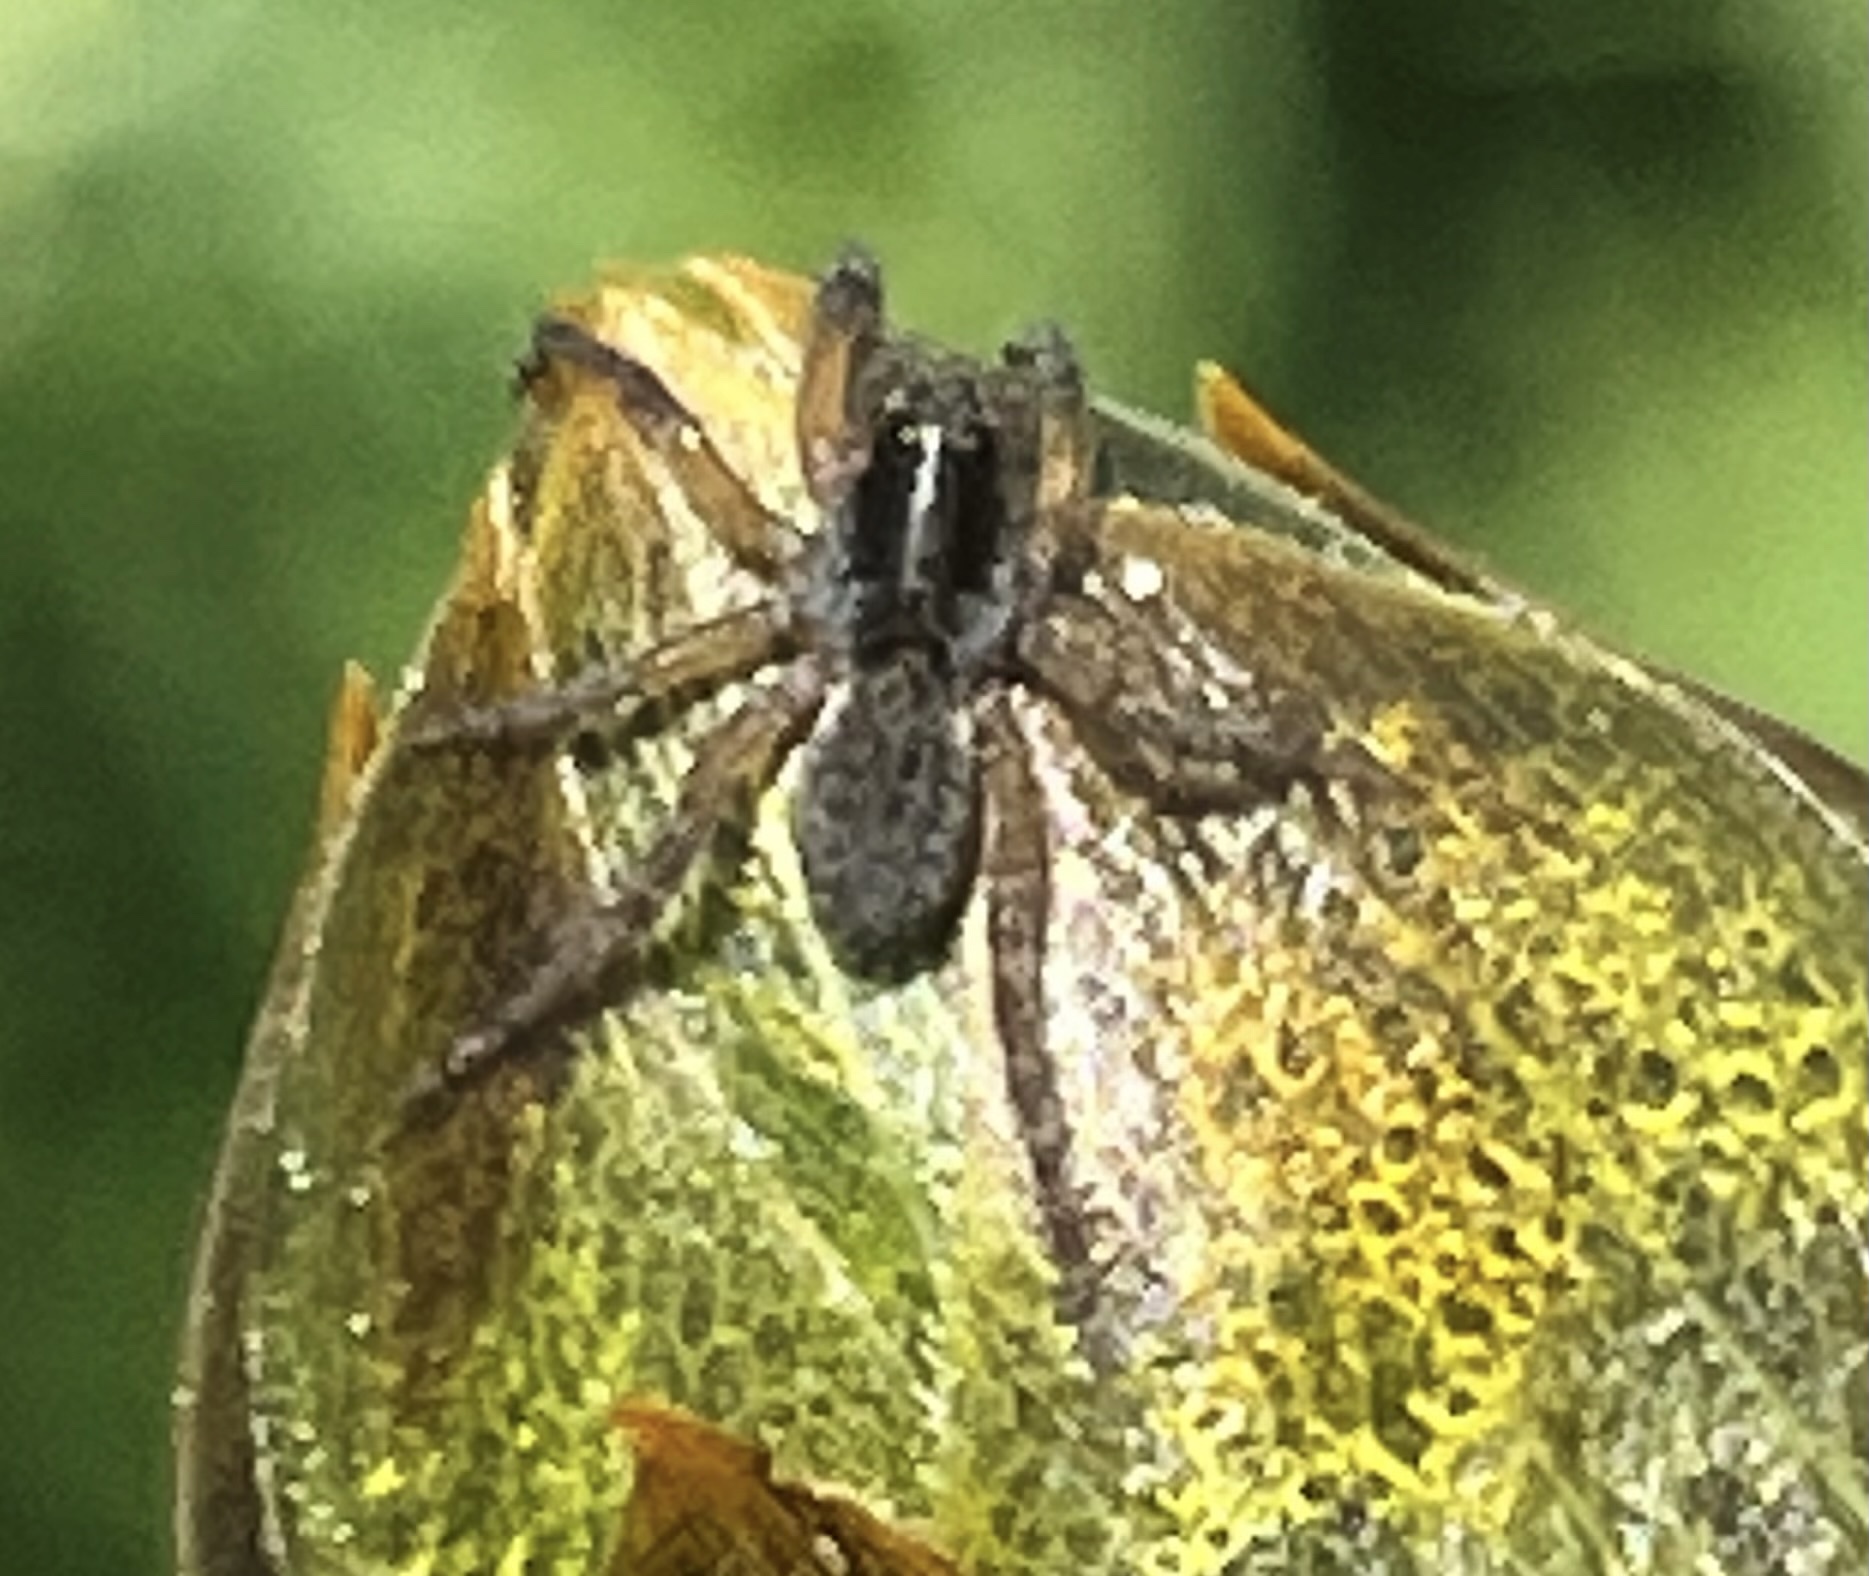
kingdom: Animalia
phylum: Arthropoda
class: Arachnida
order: Araneae
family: Lycosidae
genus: Trochosa
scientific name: Trochosa sepulchralis
